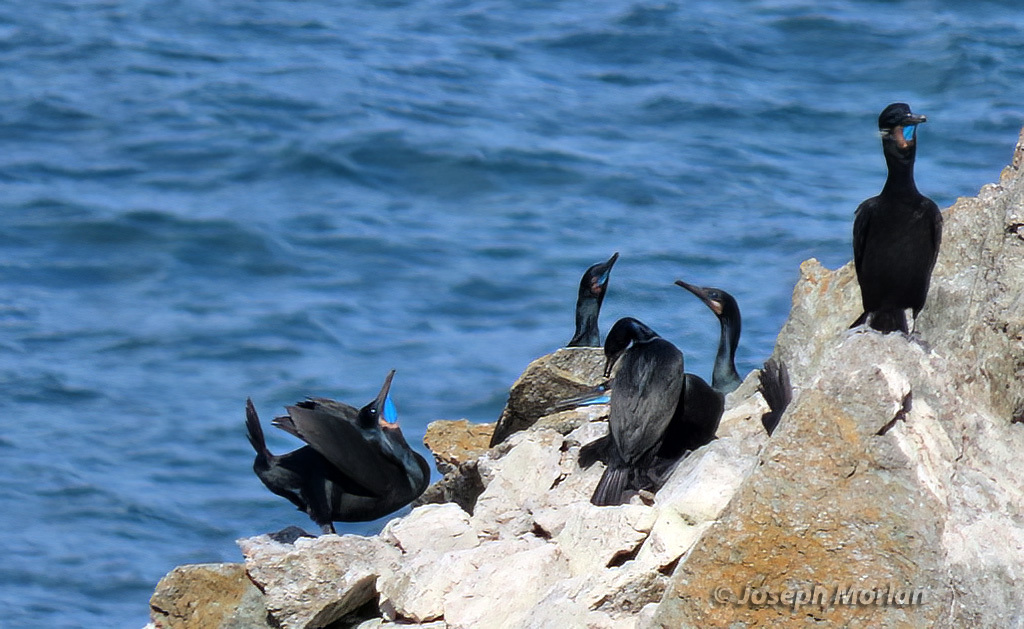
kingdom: Animalia
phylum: Chordata
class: Aves
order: Suliformes
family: Phalacrocoracidae
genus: Urile
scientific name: Urile penicillatus
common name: Brandt's cormorant
